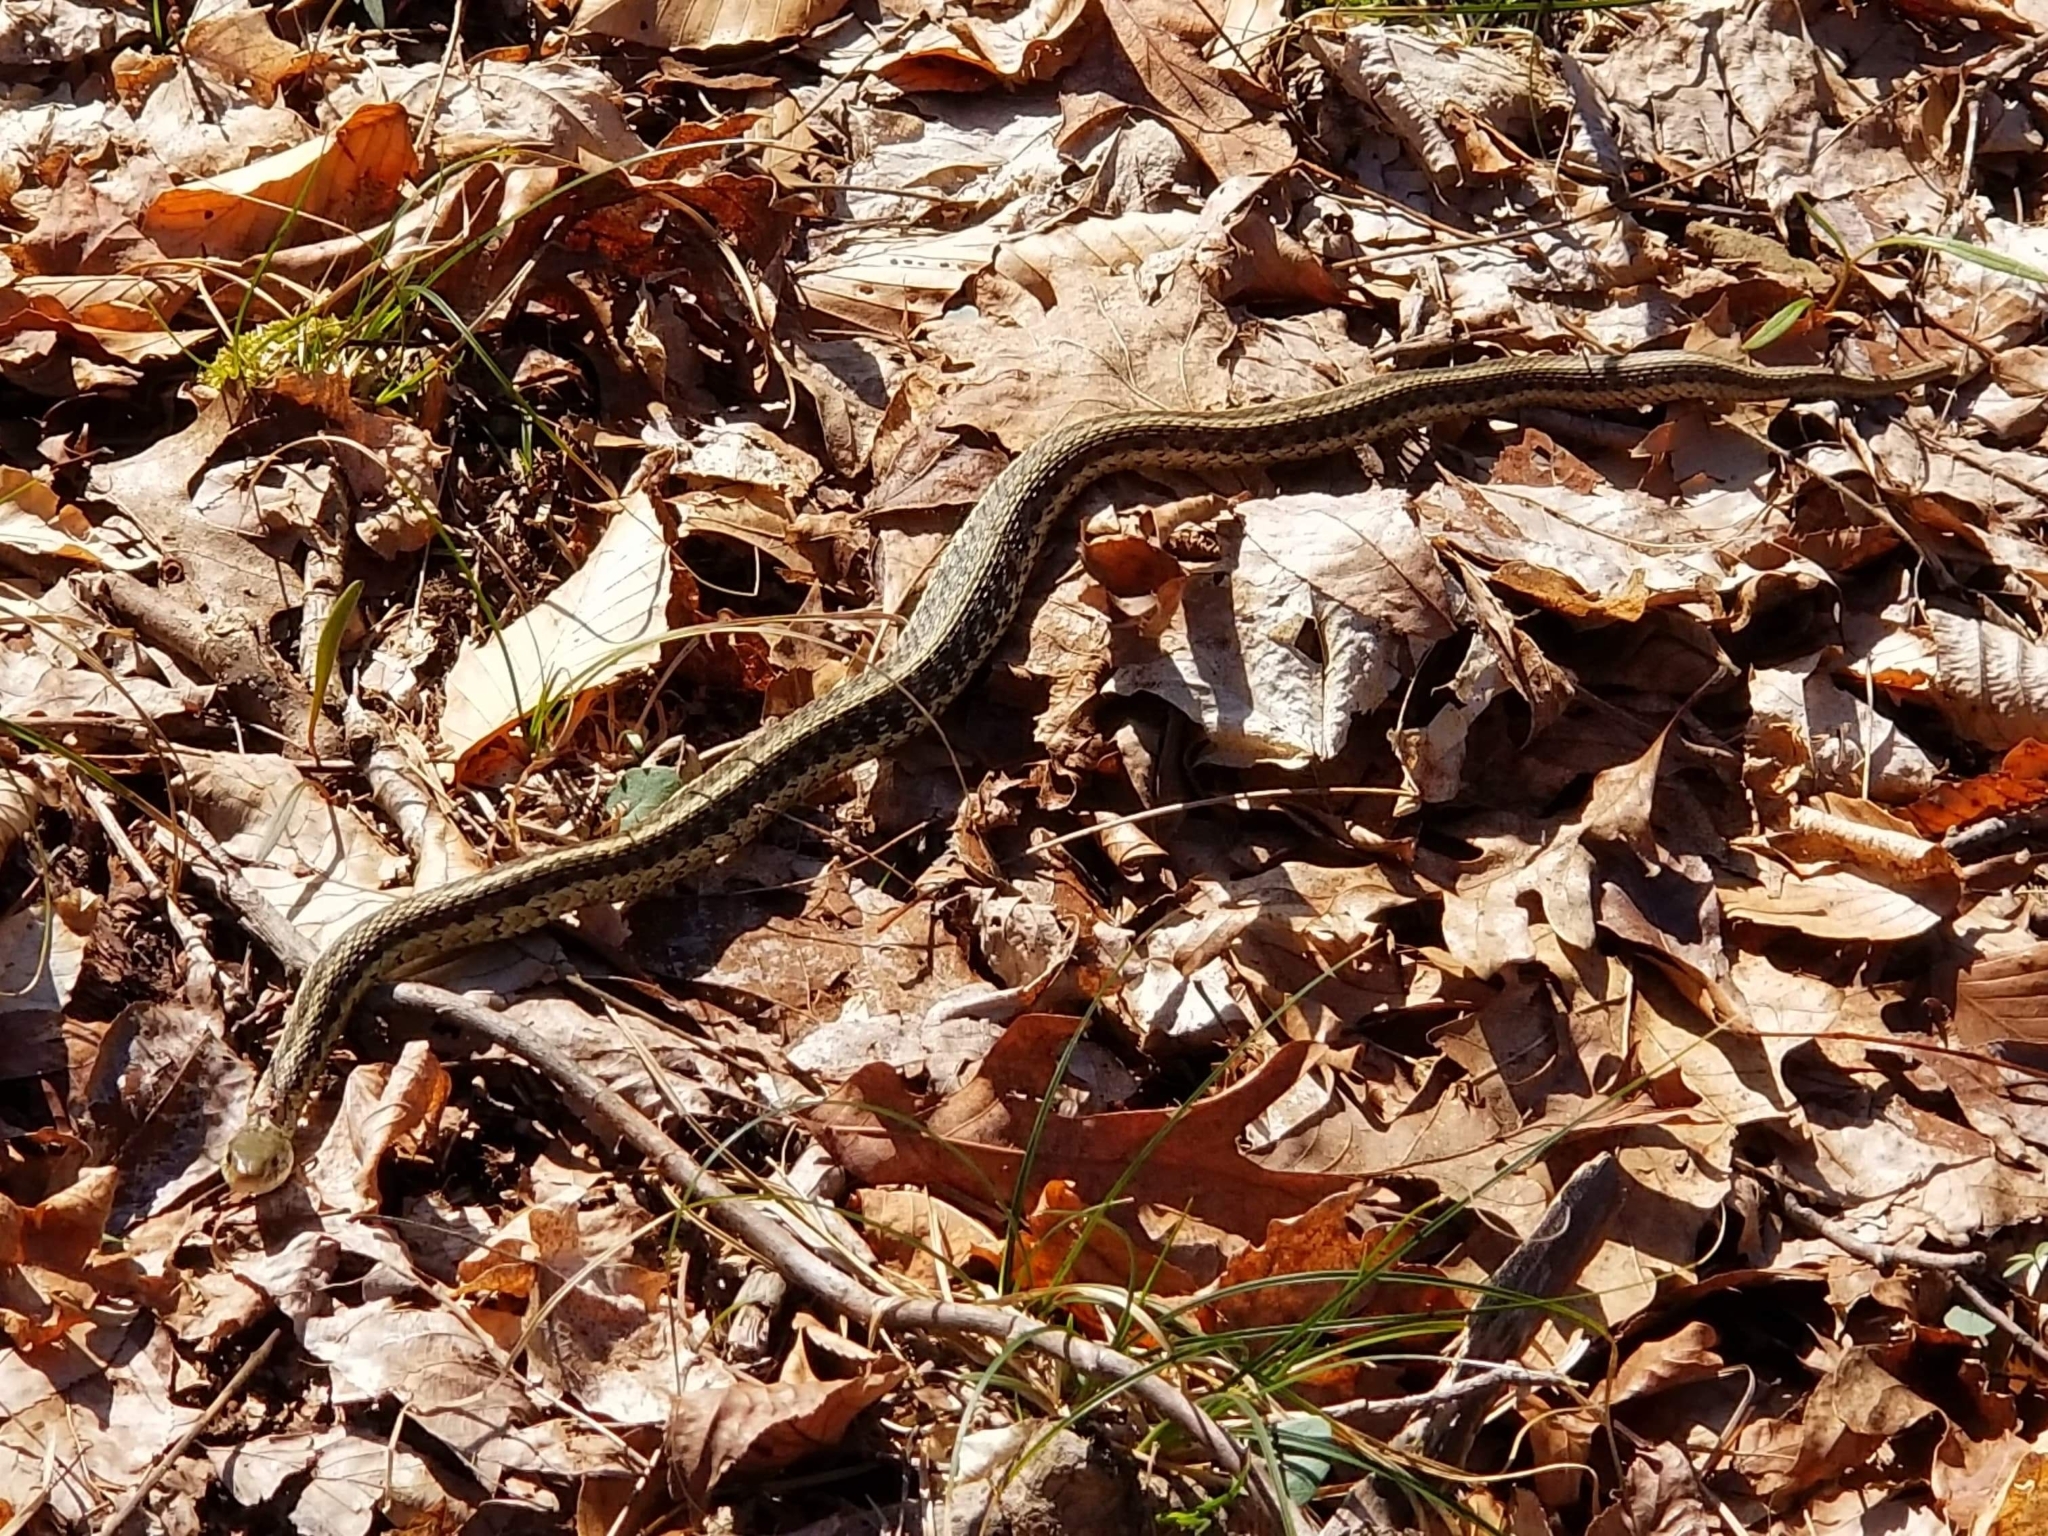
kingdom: Animalia
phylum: Chordata
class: Squamata
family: Colubridae
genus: Thamnophis
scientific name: Thamnophis sirtalis
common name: Common garter snake
